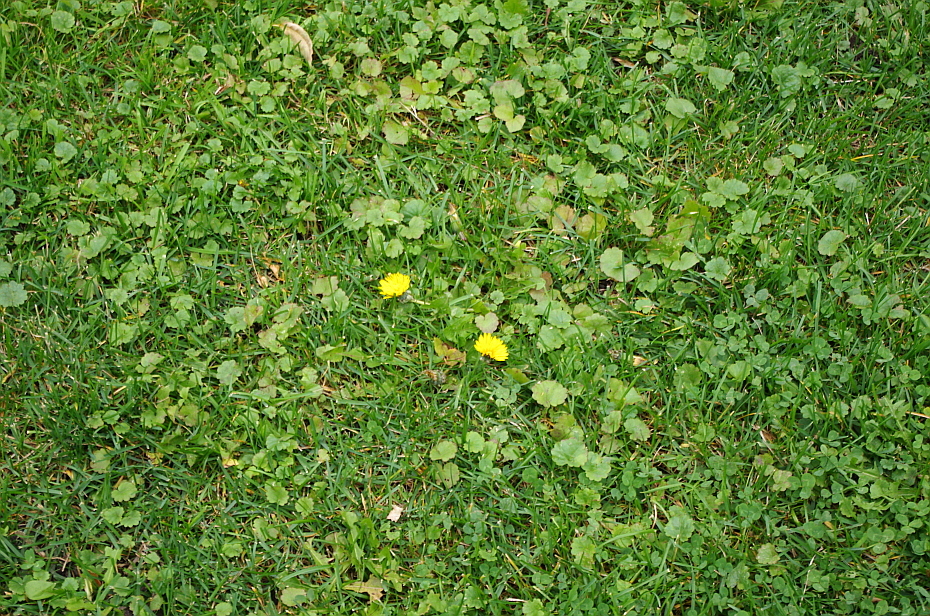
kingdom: Plantae
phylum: Tracheophyta
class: Magnoliopsida
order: Lamiales
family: Lamiaceae
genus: Glechoma
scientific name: Glechoma hederacea
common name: Ground ivy
